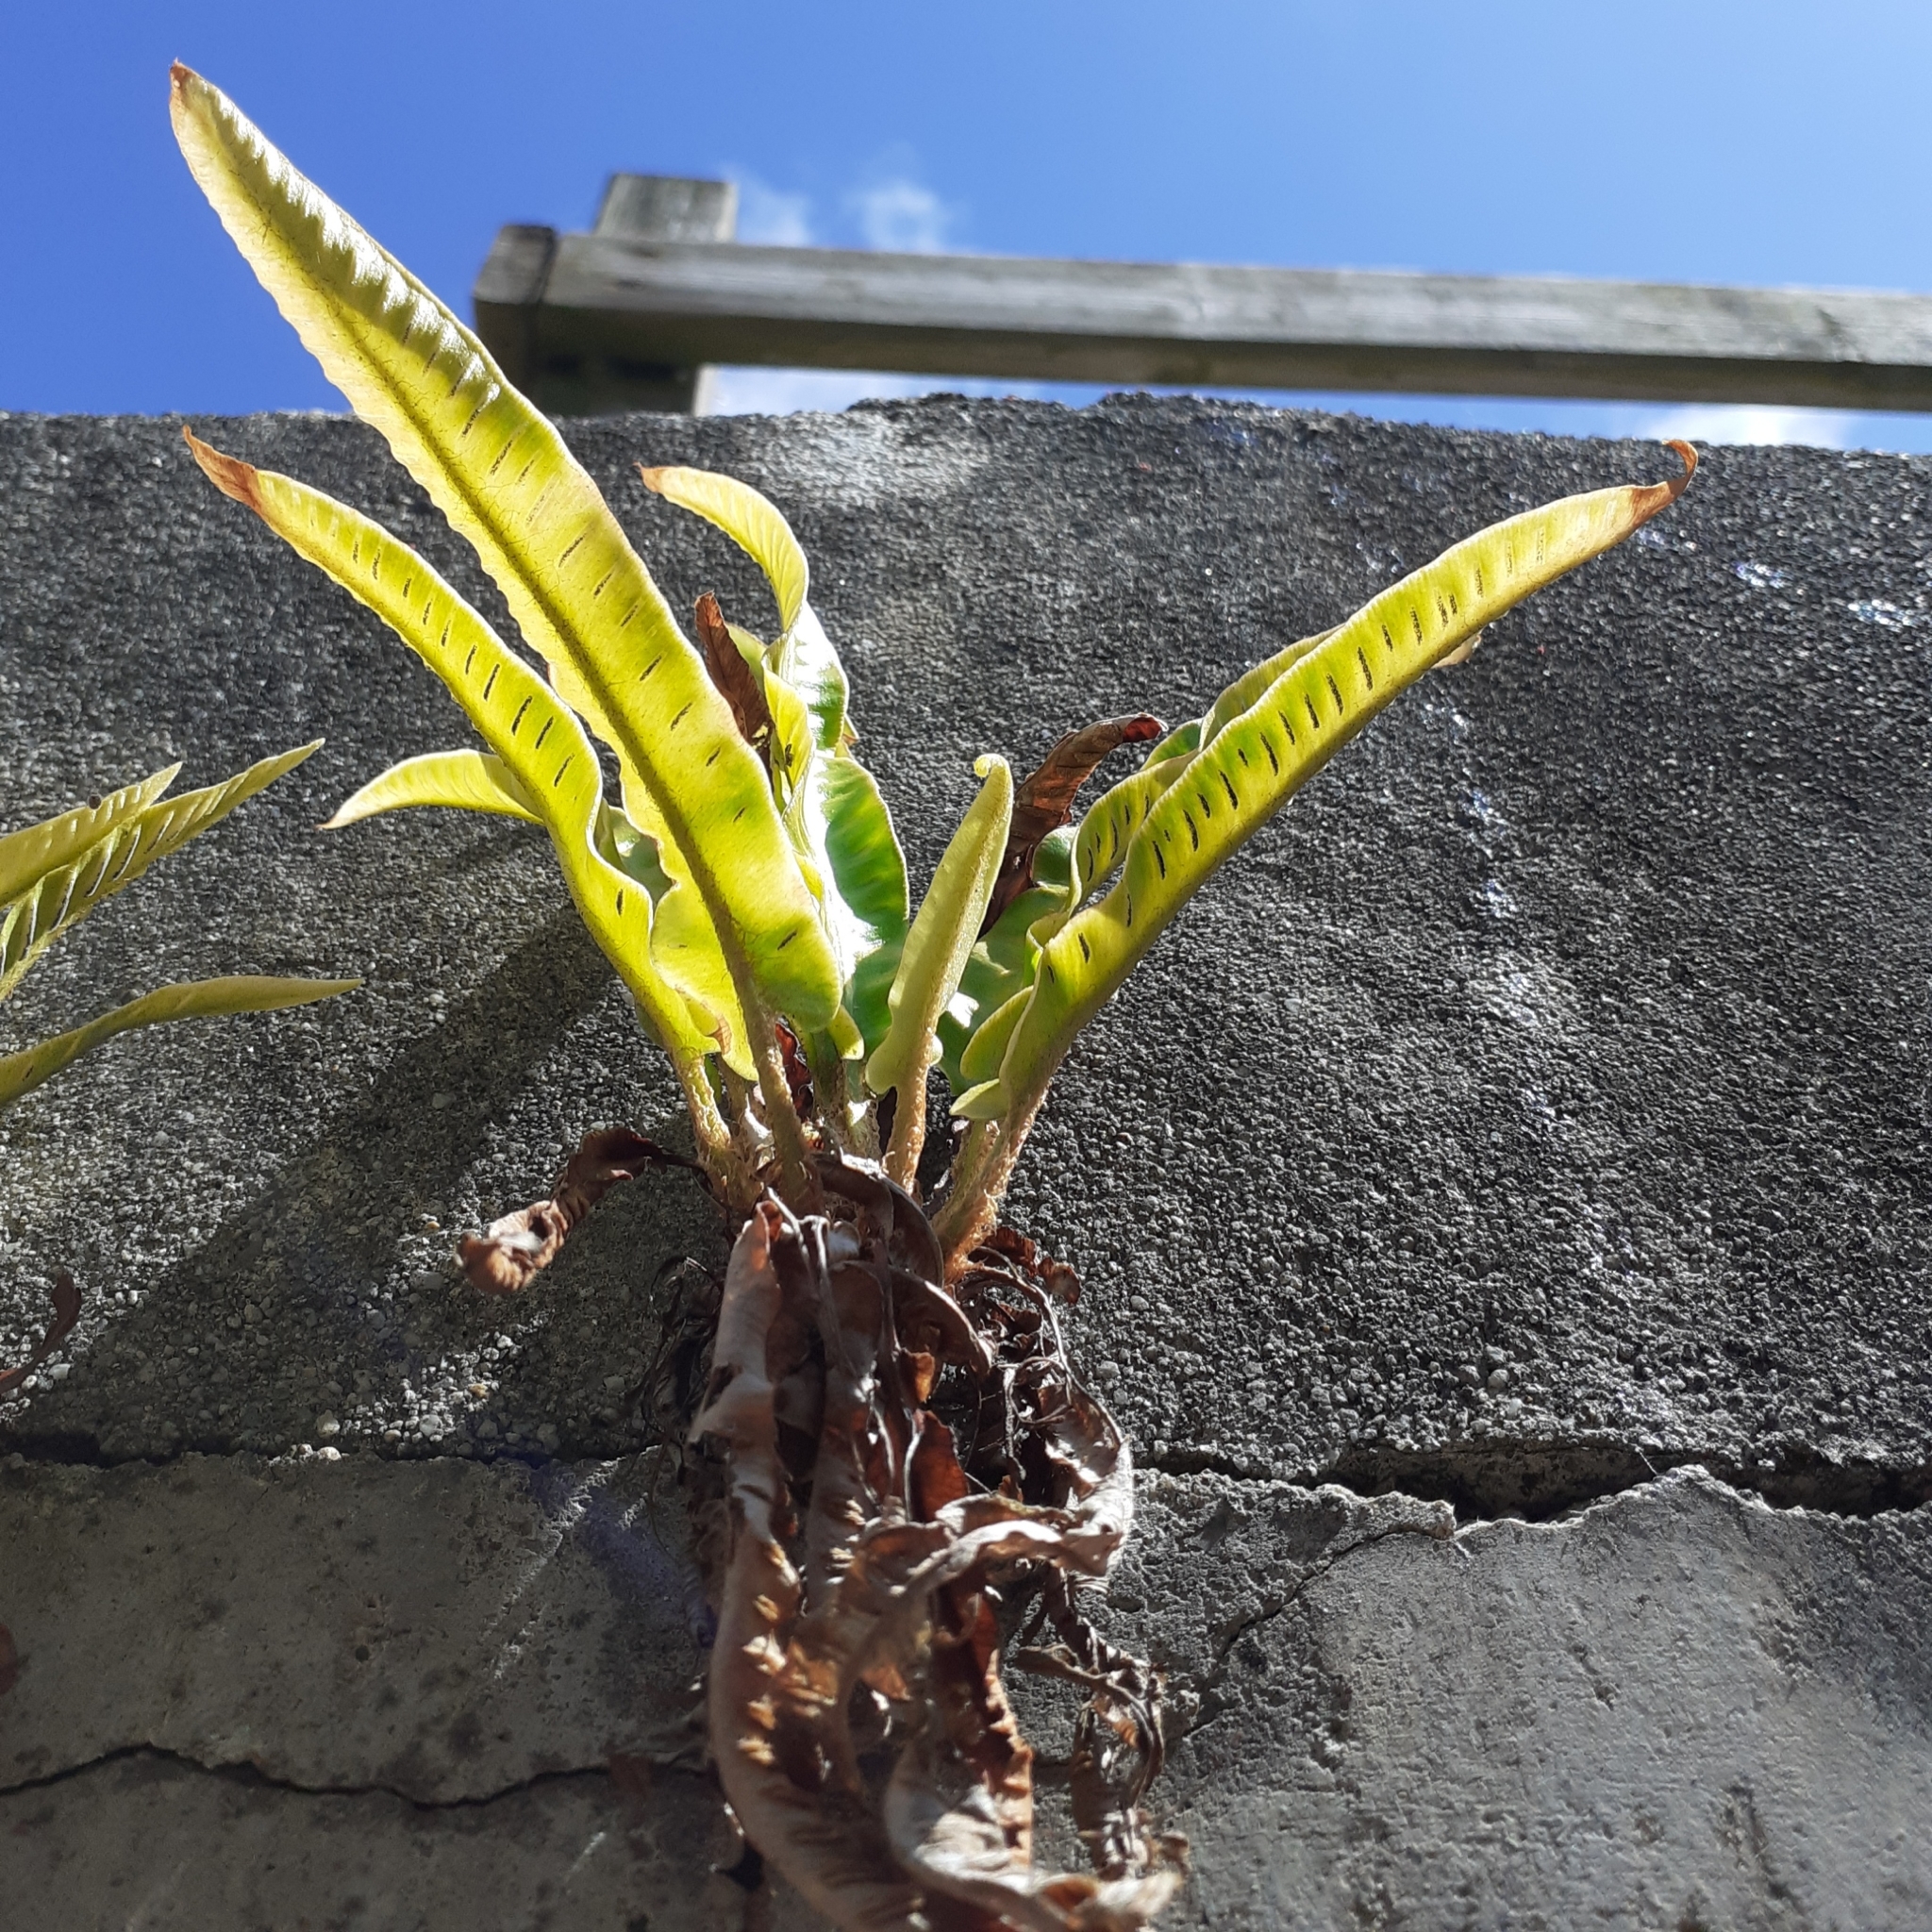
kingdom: Plantae
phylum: Tracheophyta
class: Polypodiopsida
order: Polypodiales
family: Aspleniaceae
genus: Asplenium
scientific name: Asplenium scolopendrium
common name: Hart's-tongue fern
